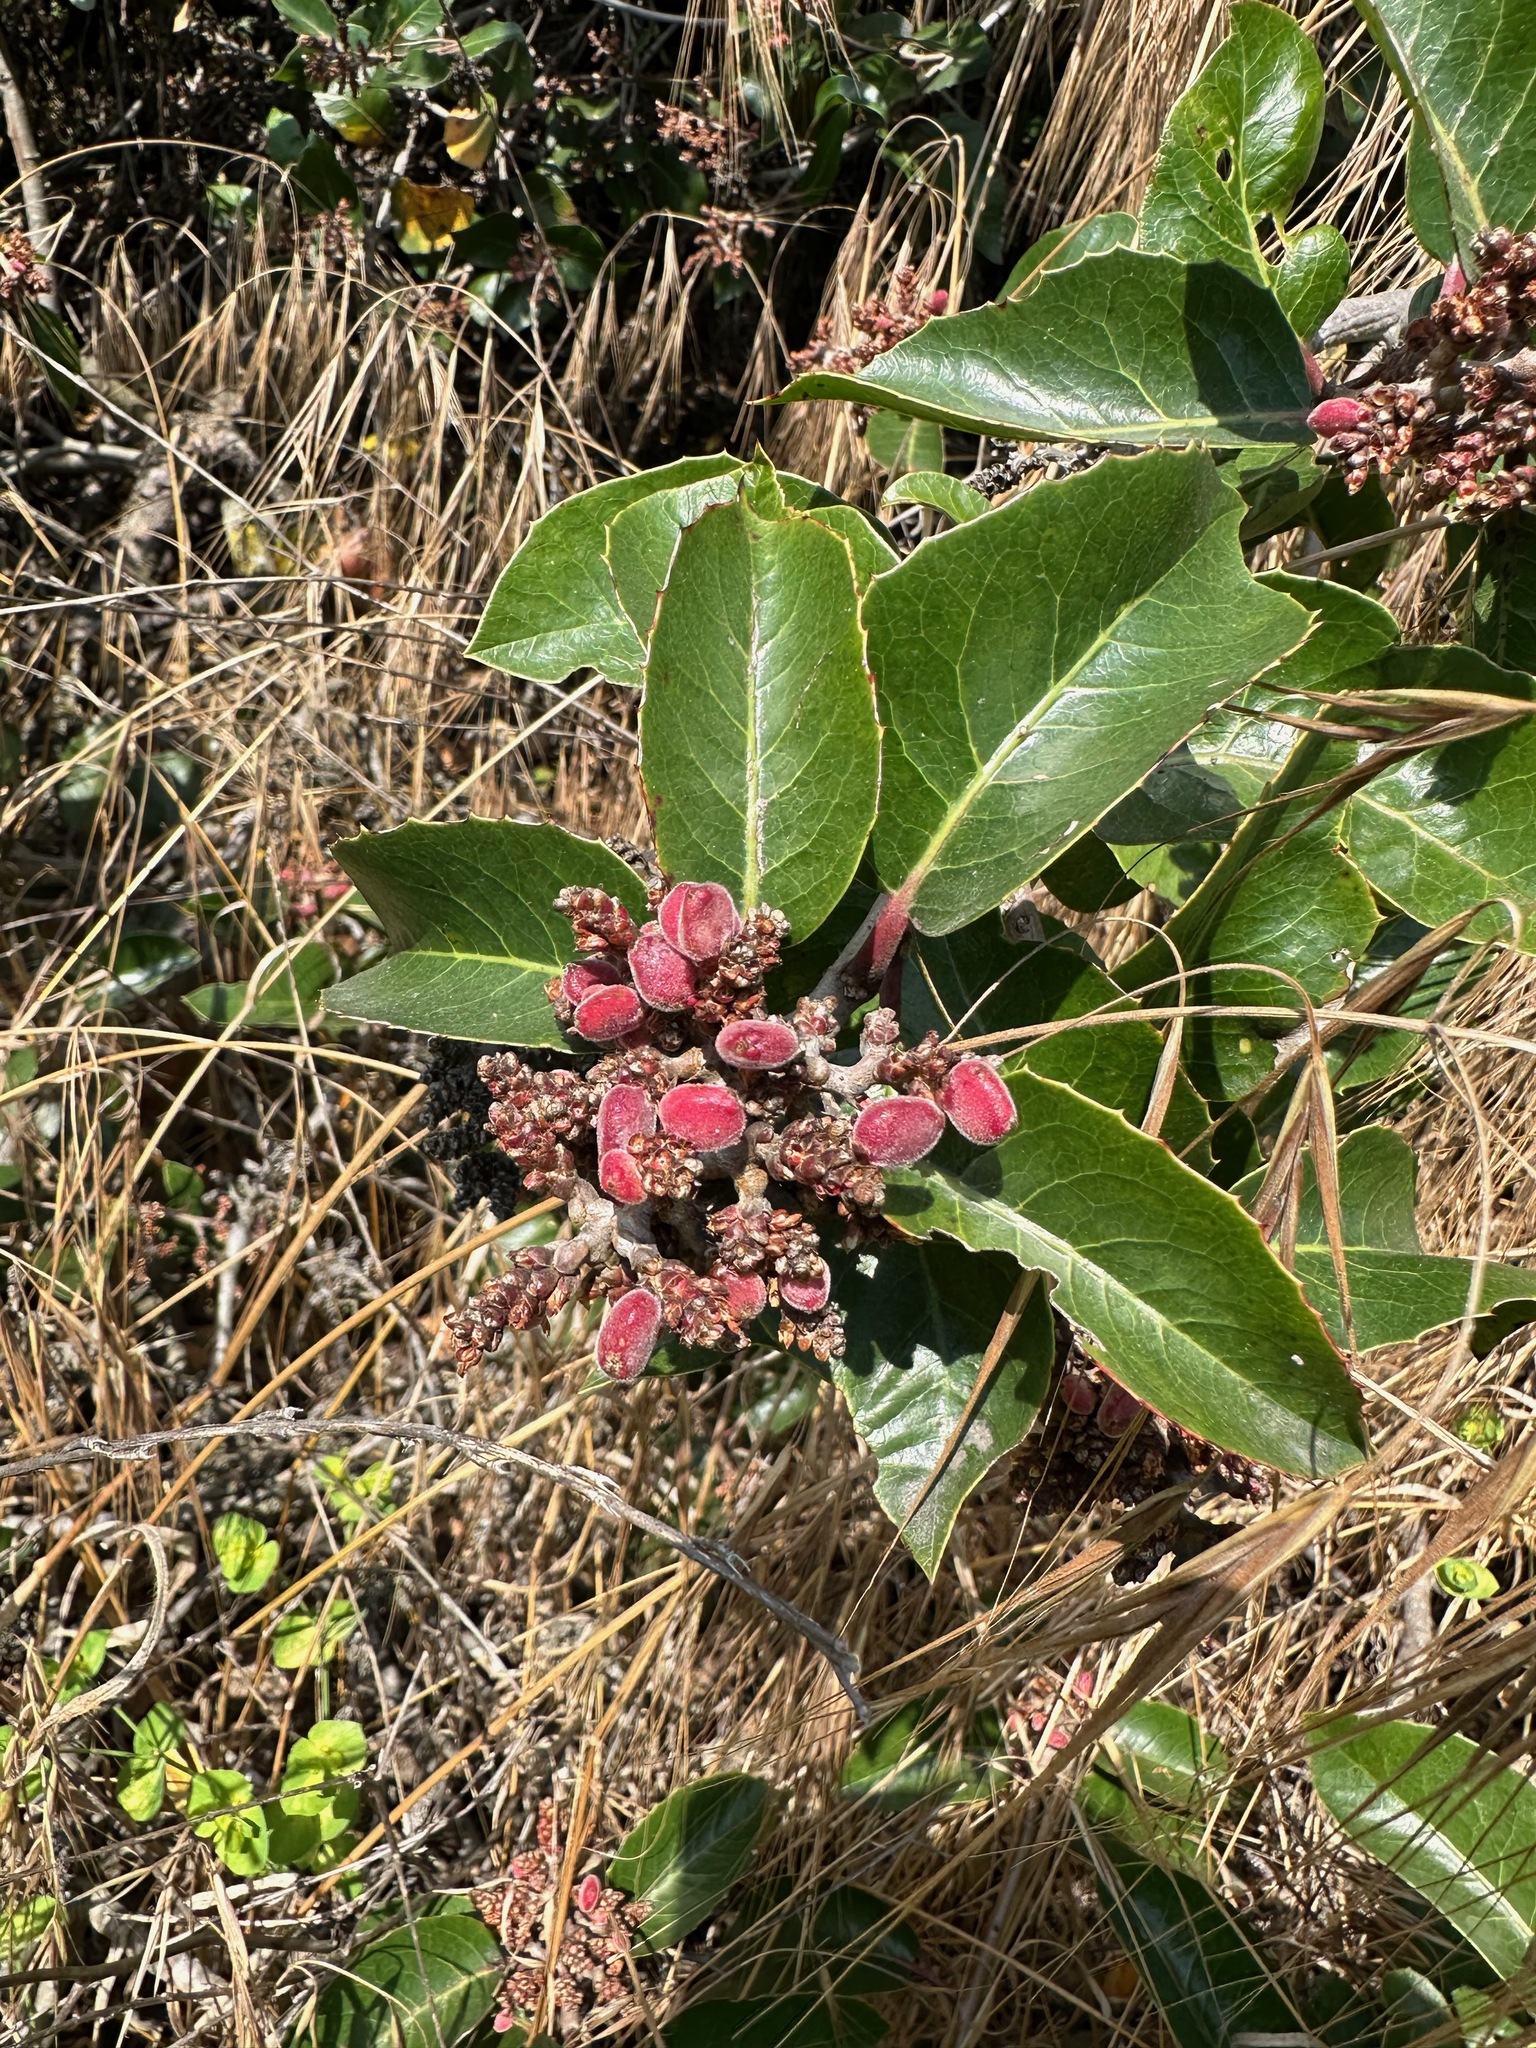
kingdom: Plantae
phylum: Tracheophyta
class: Magnoliopsida
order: Sapindales
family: Anacardiaceae
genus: Rhus
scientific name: Rhus ovata
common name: Sugar sumac
